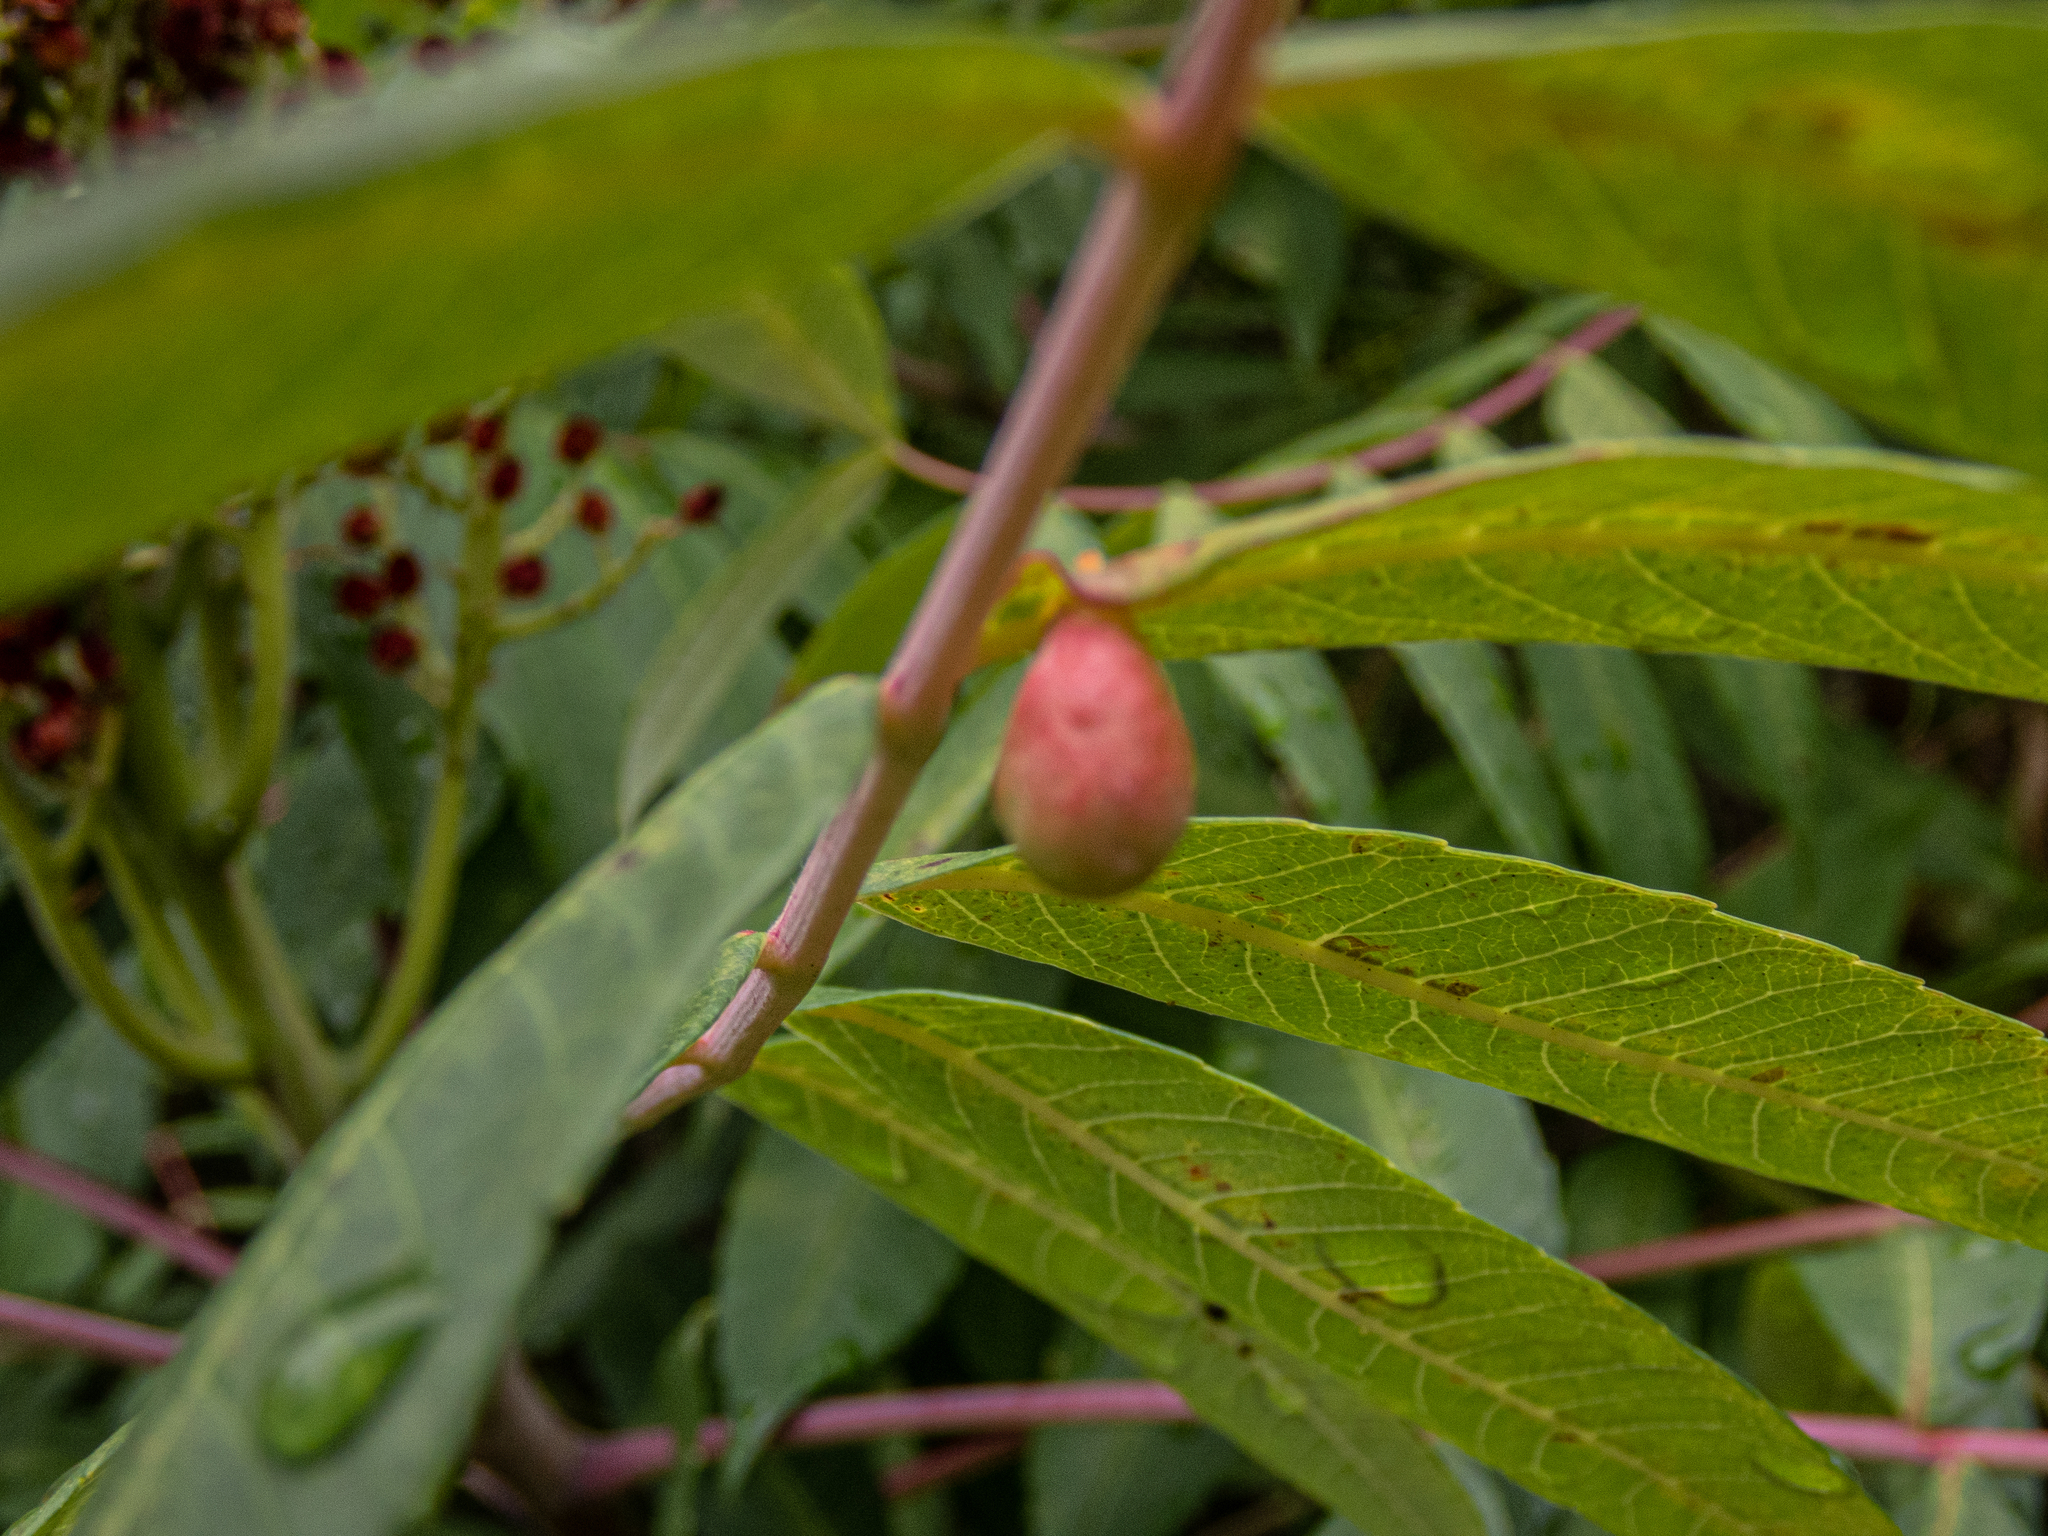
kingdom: Animalia
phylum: Arthropoda
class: Insecta
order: Hemiptera
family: Aphididae
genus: Melaphis
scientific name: Melaphis rhois
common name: Sumac gall aphid
